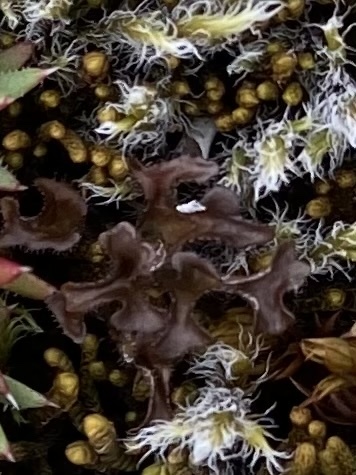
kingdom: Fungi
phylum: Ascomycota
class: Lecanoromycetes
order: Lecanorales
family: Parmeliaceae
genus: Cetraria
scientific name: Cetraria islandica
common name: Iceland lichen
